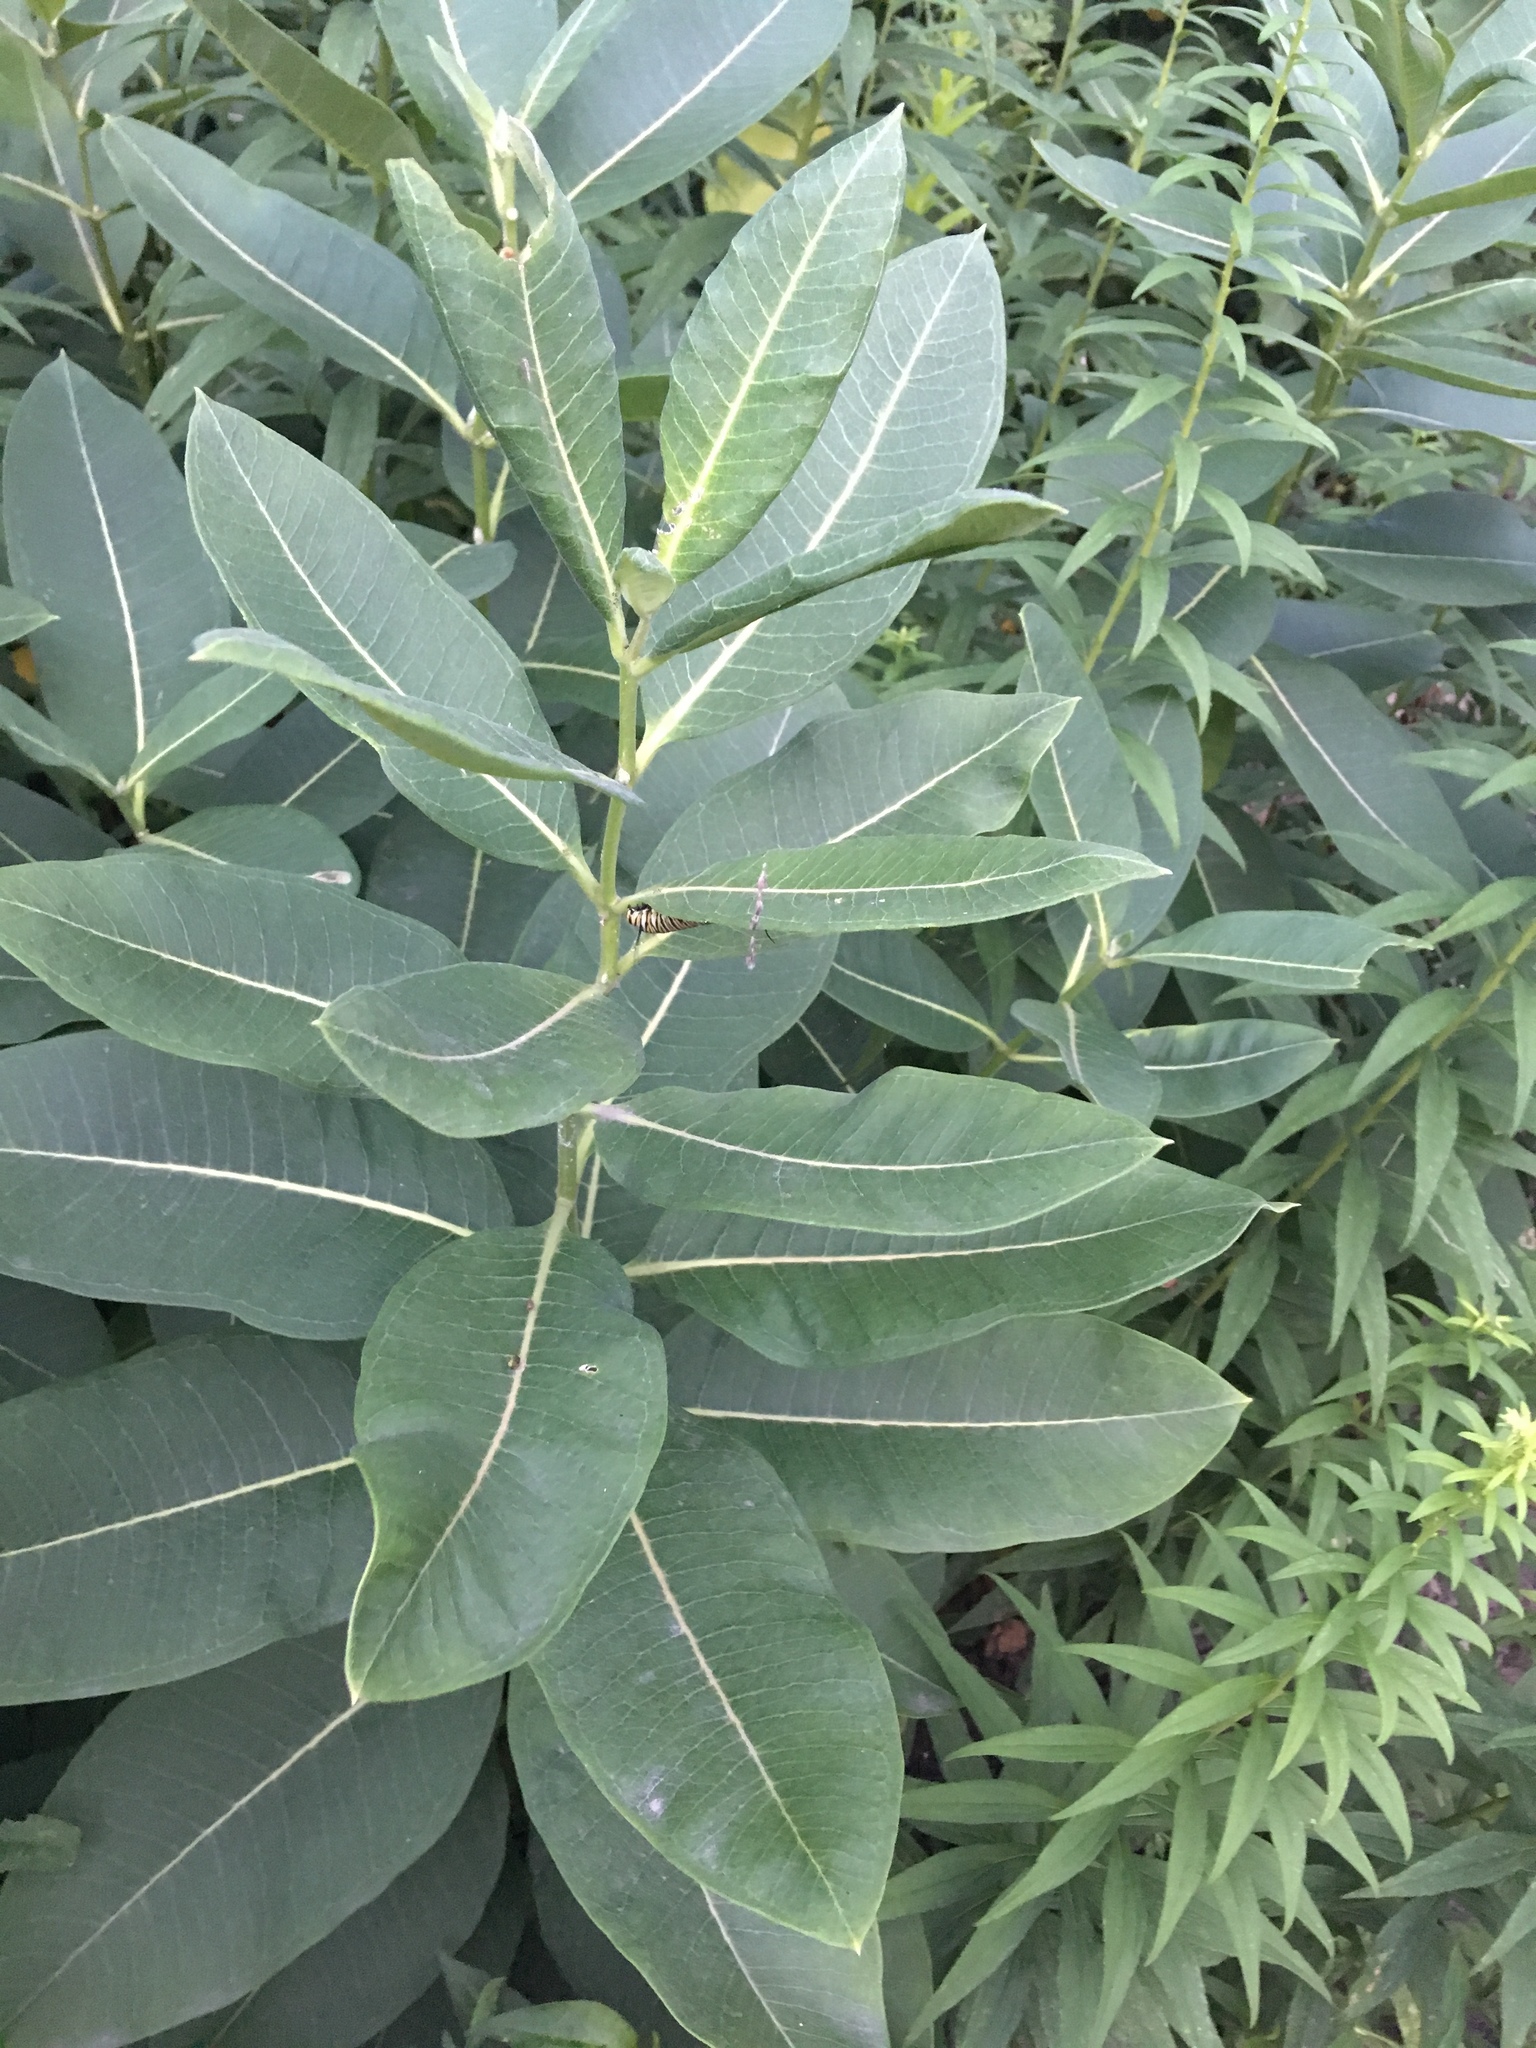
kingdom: Plantae
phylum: Tracheophyta
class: Magnoliopsida
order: Gentianales
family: Apocynaceae
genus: Asclepias
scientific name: Asclepias syriaca
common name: Common milkweed
